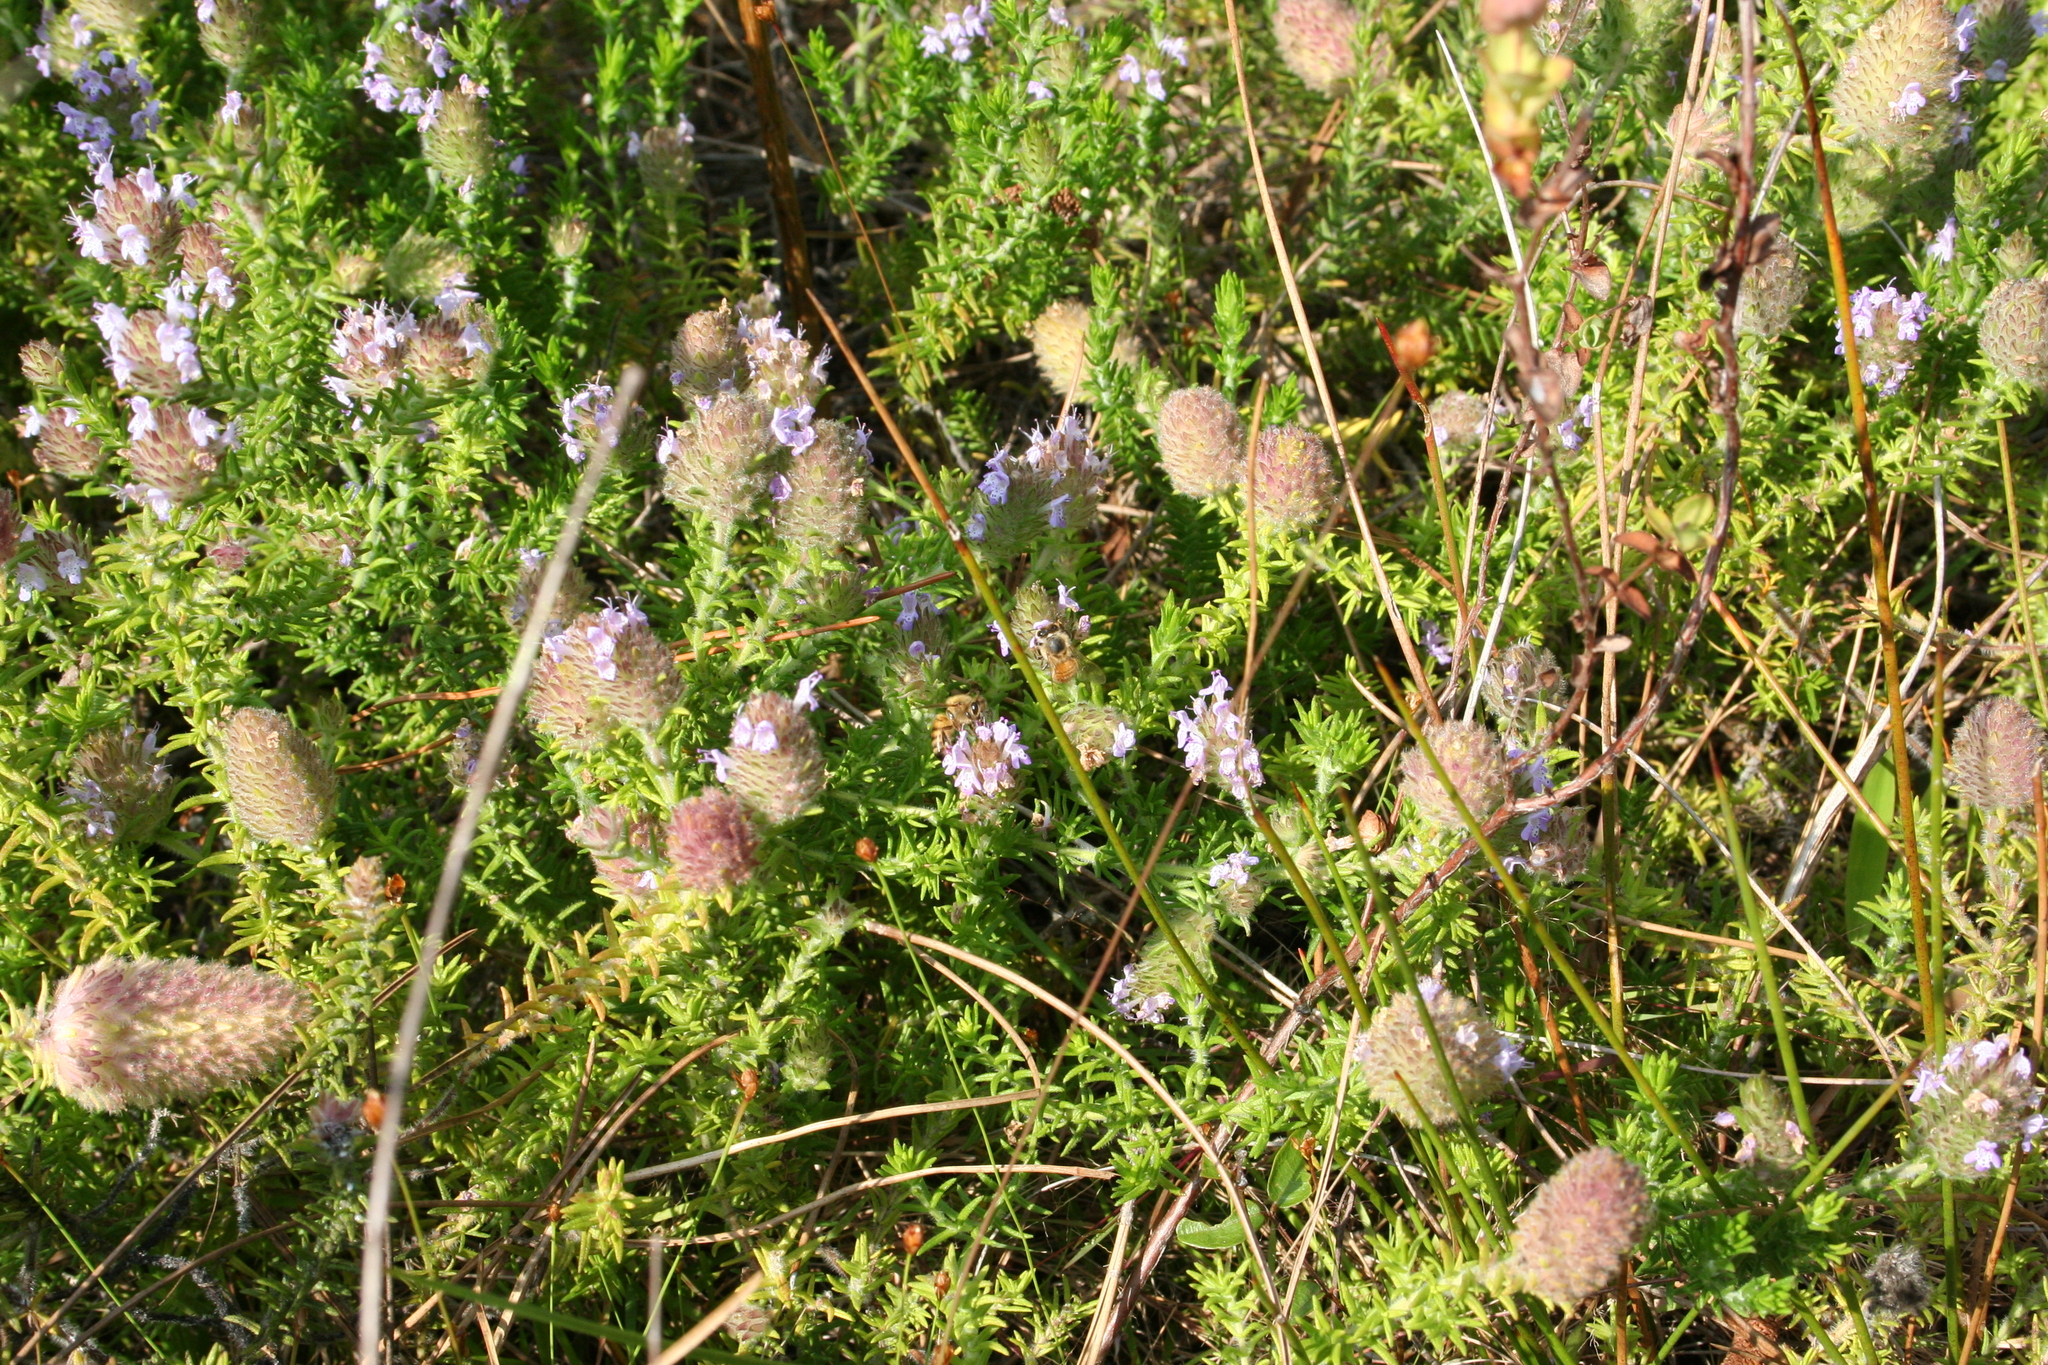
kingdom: Plantae
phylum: Tracheophyta
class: Magnoliopsida
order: Lamiales
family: Lamiaceae
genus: Piloblephis
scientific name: Piloblephis rigida
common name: Wild pennyroyal
